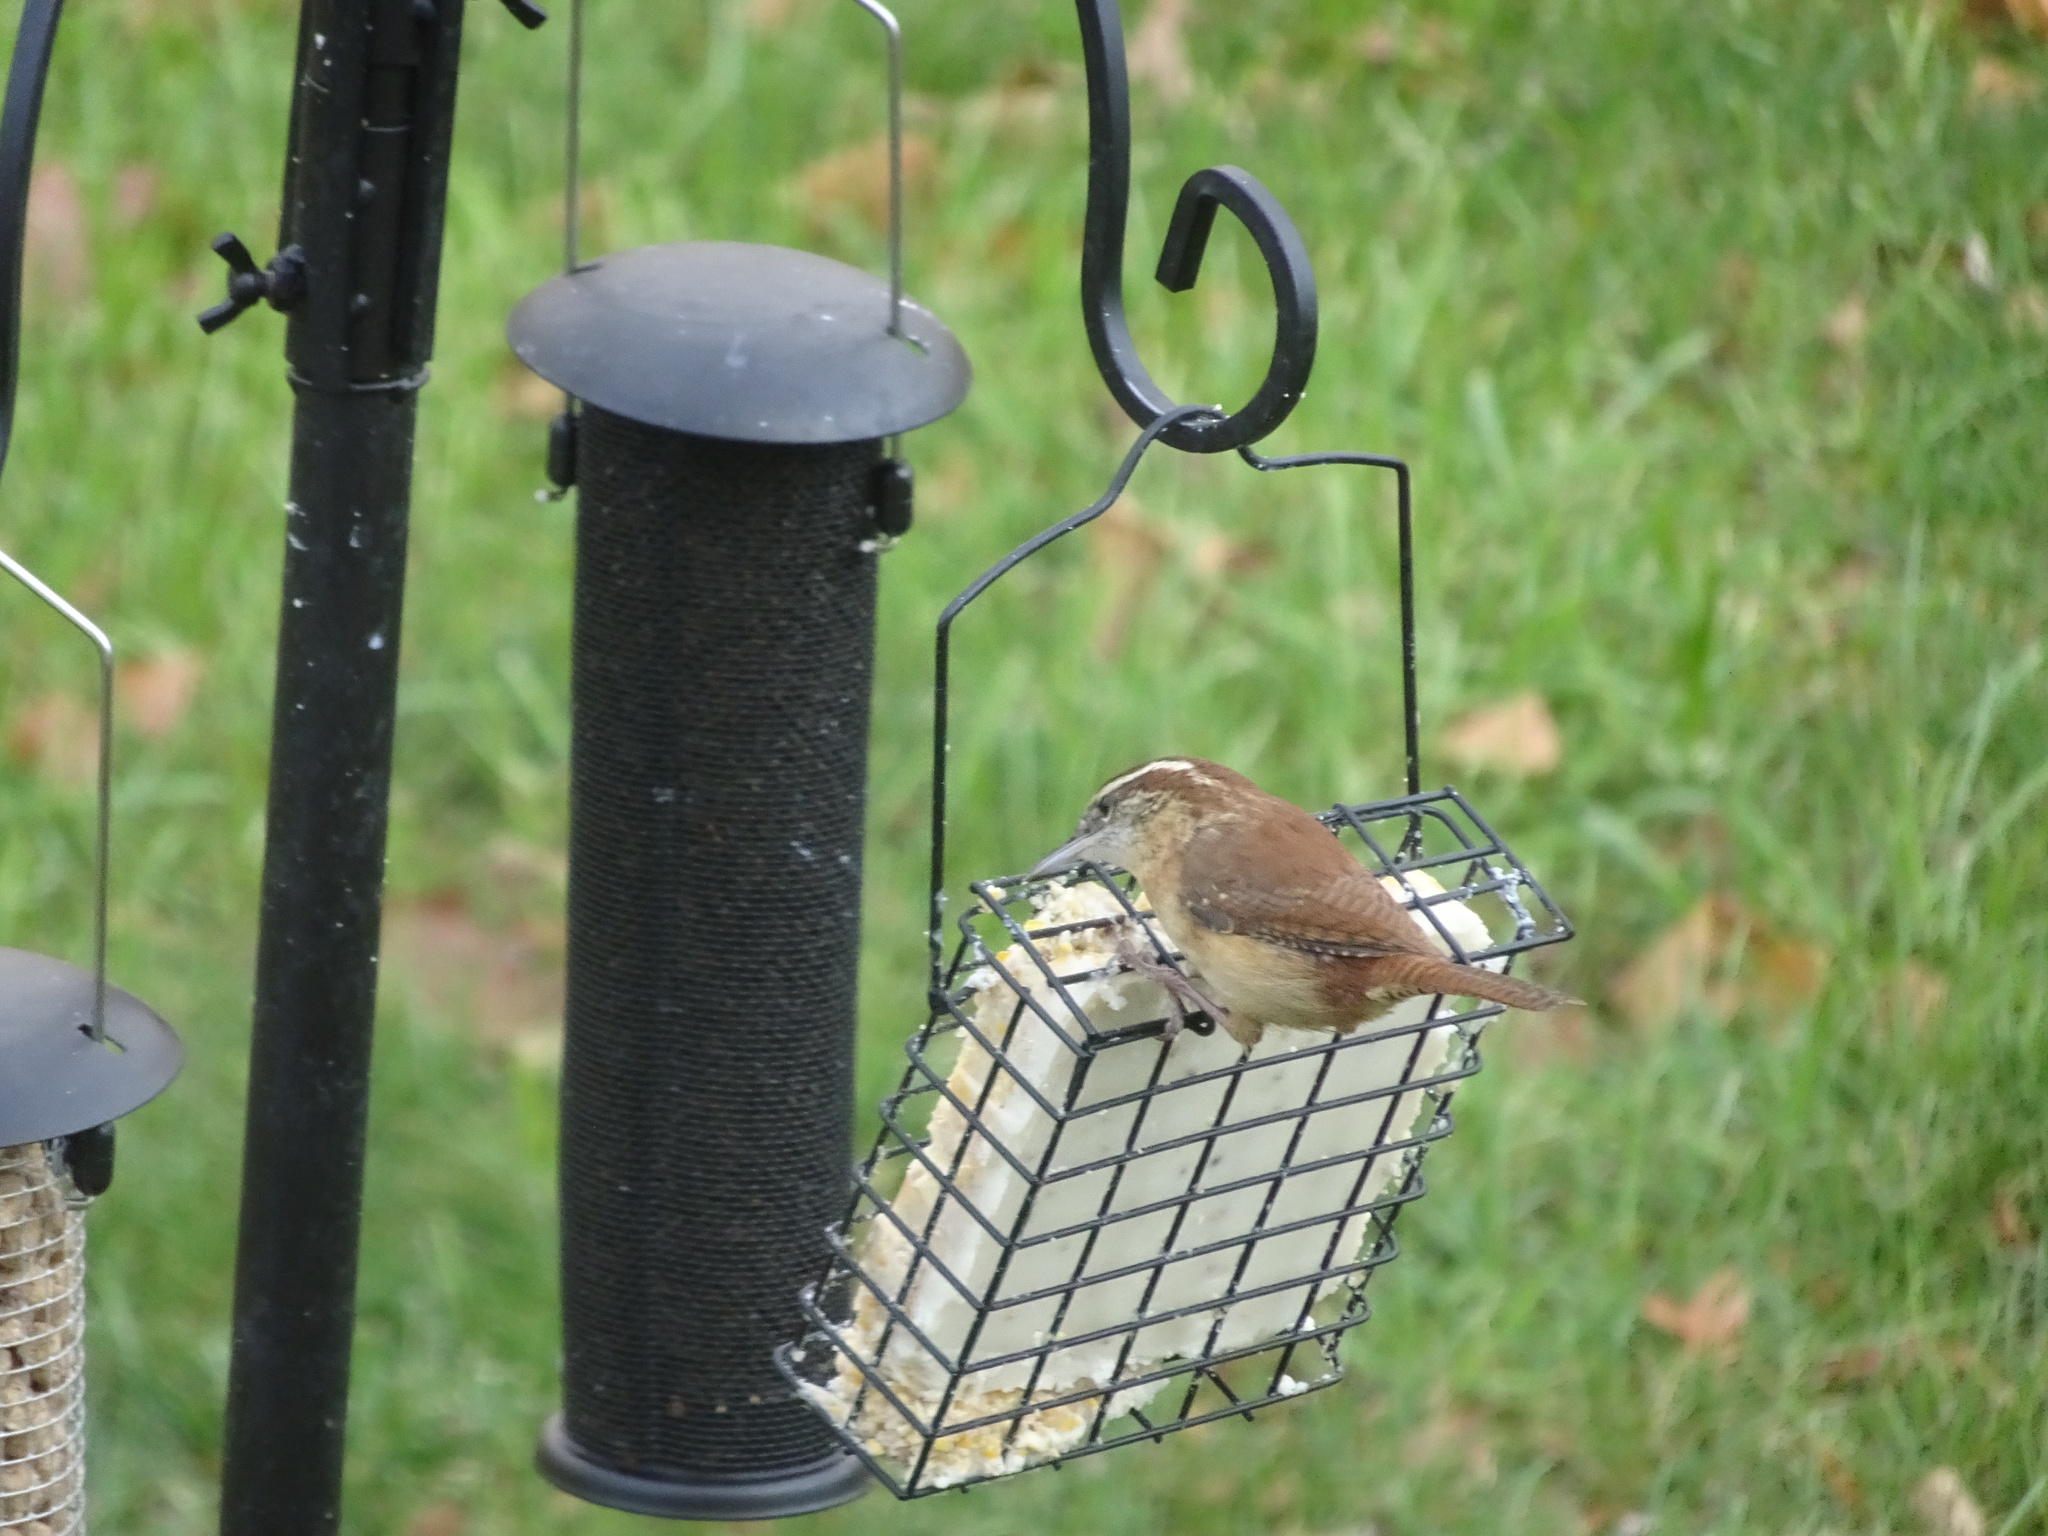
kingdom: Animalia
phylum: Chordata
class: Aves
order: Passeriformes
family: Troglodytidae
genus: Thryothorus
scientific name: Thryothorus ludovicianus
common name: Carolina wren
